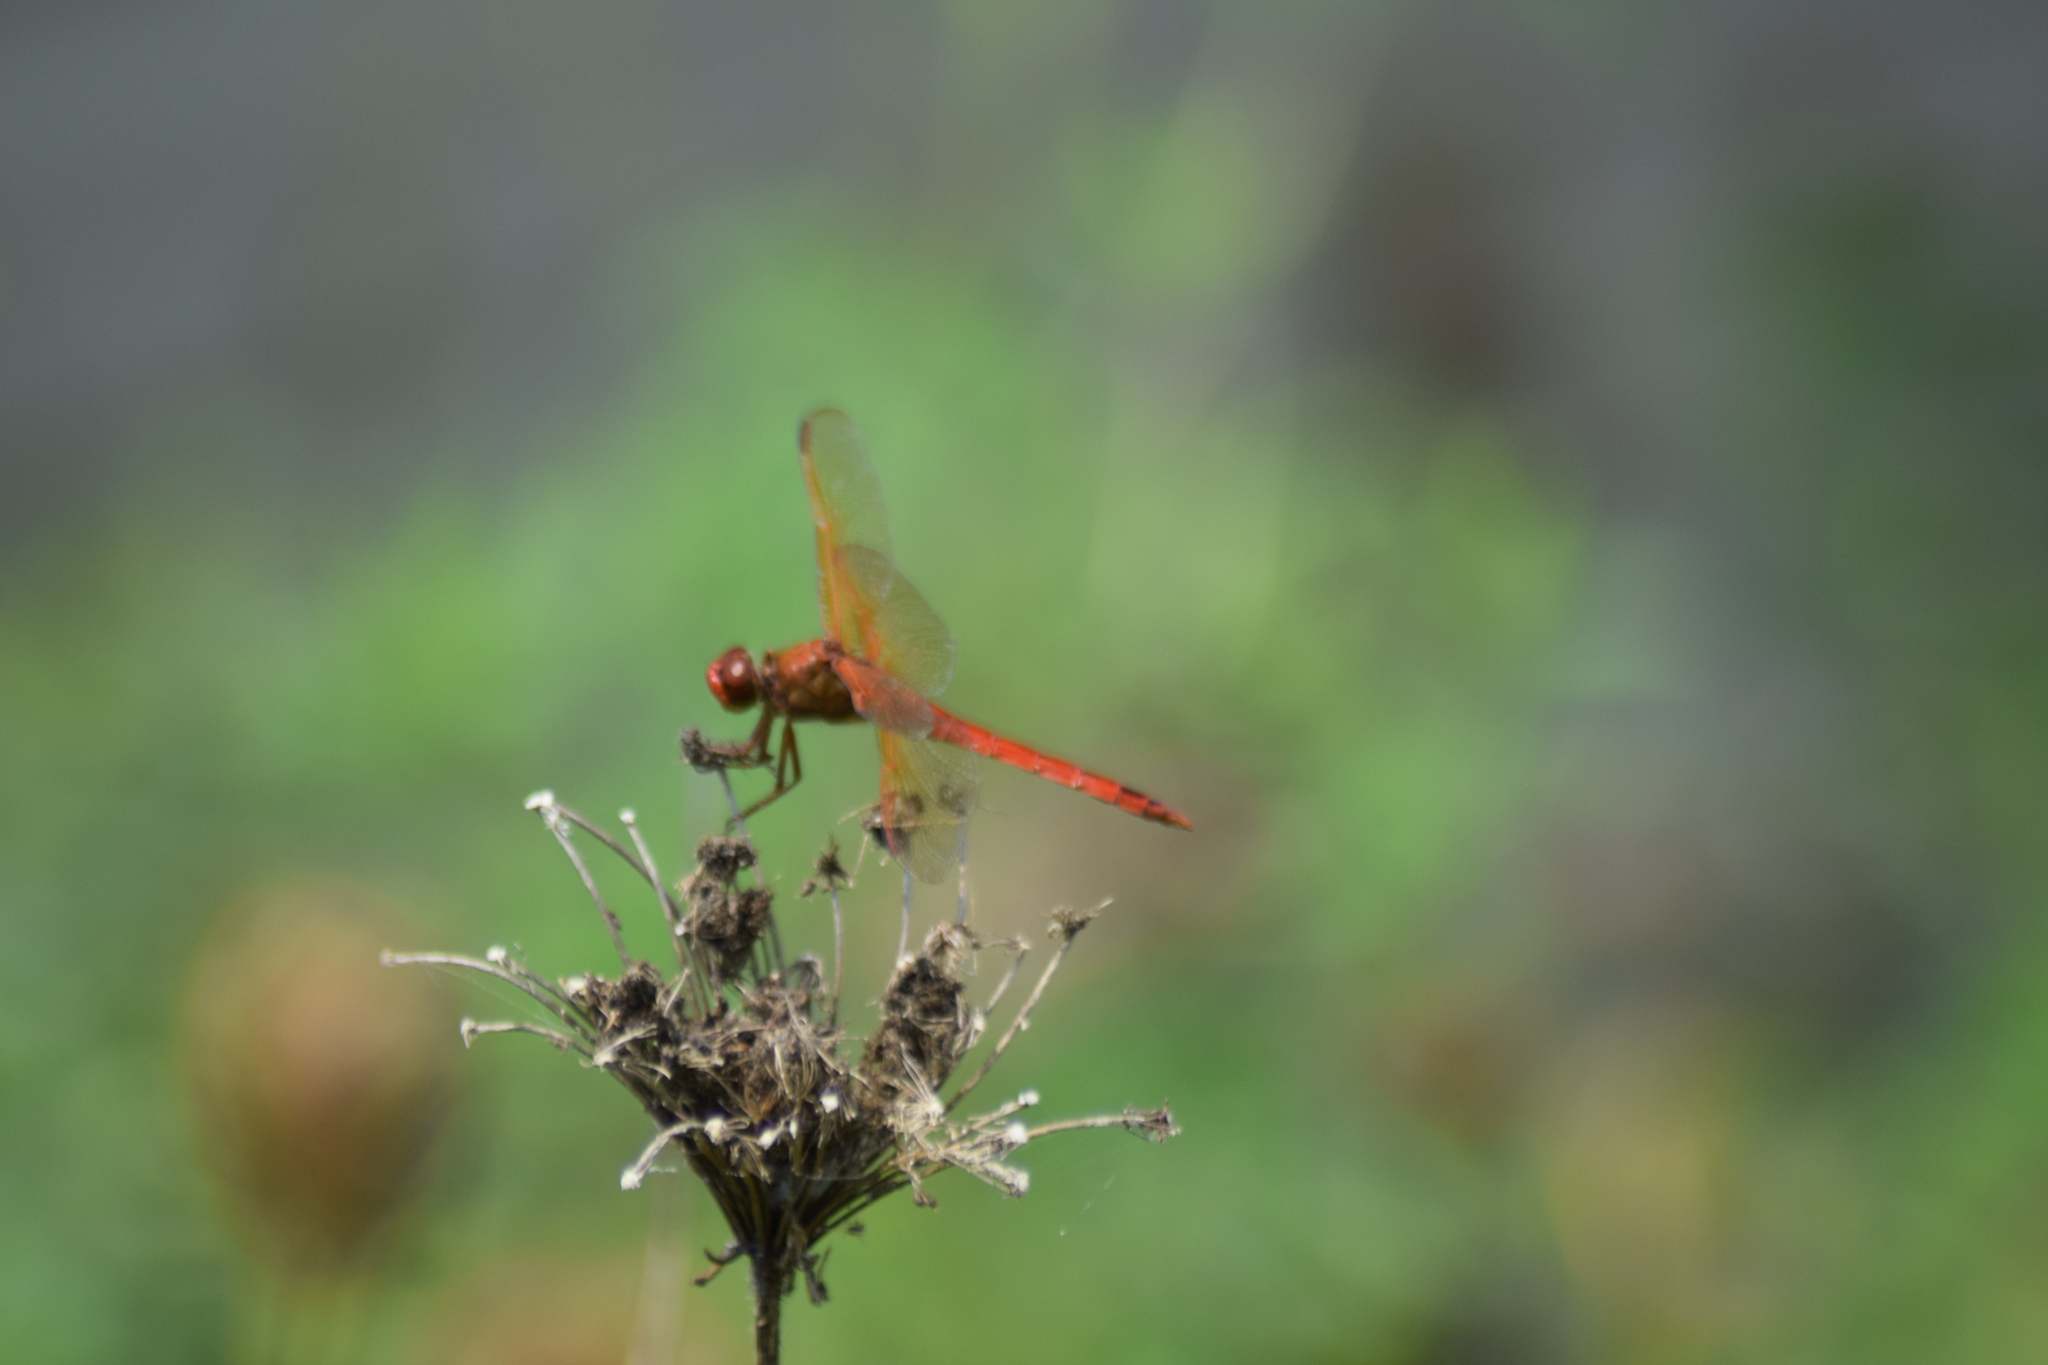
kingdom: Animalia
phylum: Arthropoda
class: Insecta
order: Odonata
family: Libellulidae
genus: Libellula
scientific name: Libellula needhami
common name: Needham's skimmer
